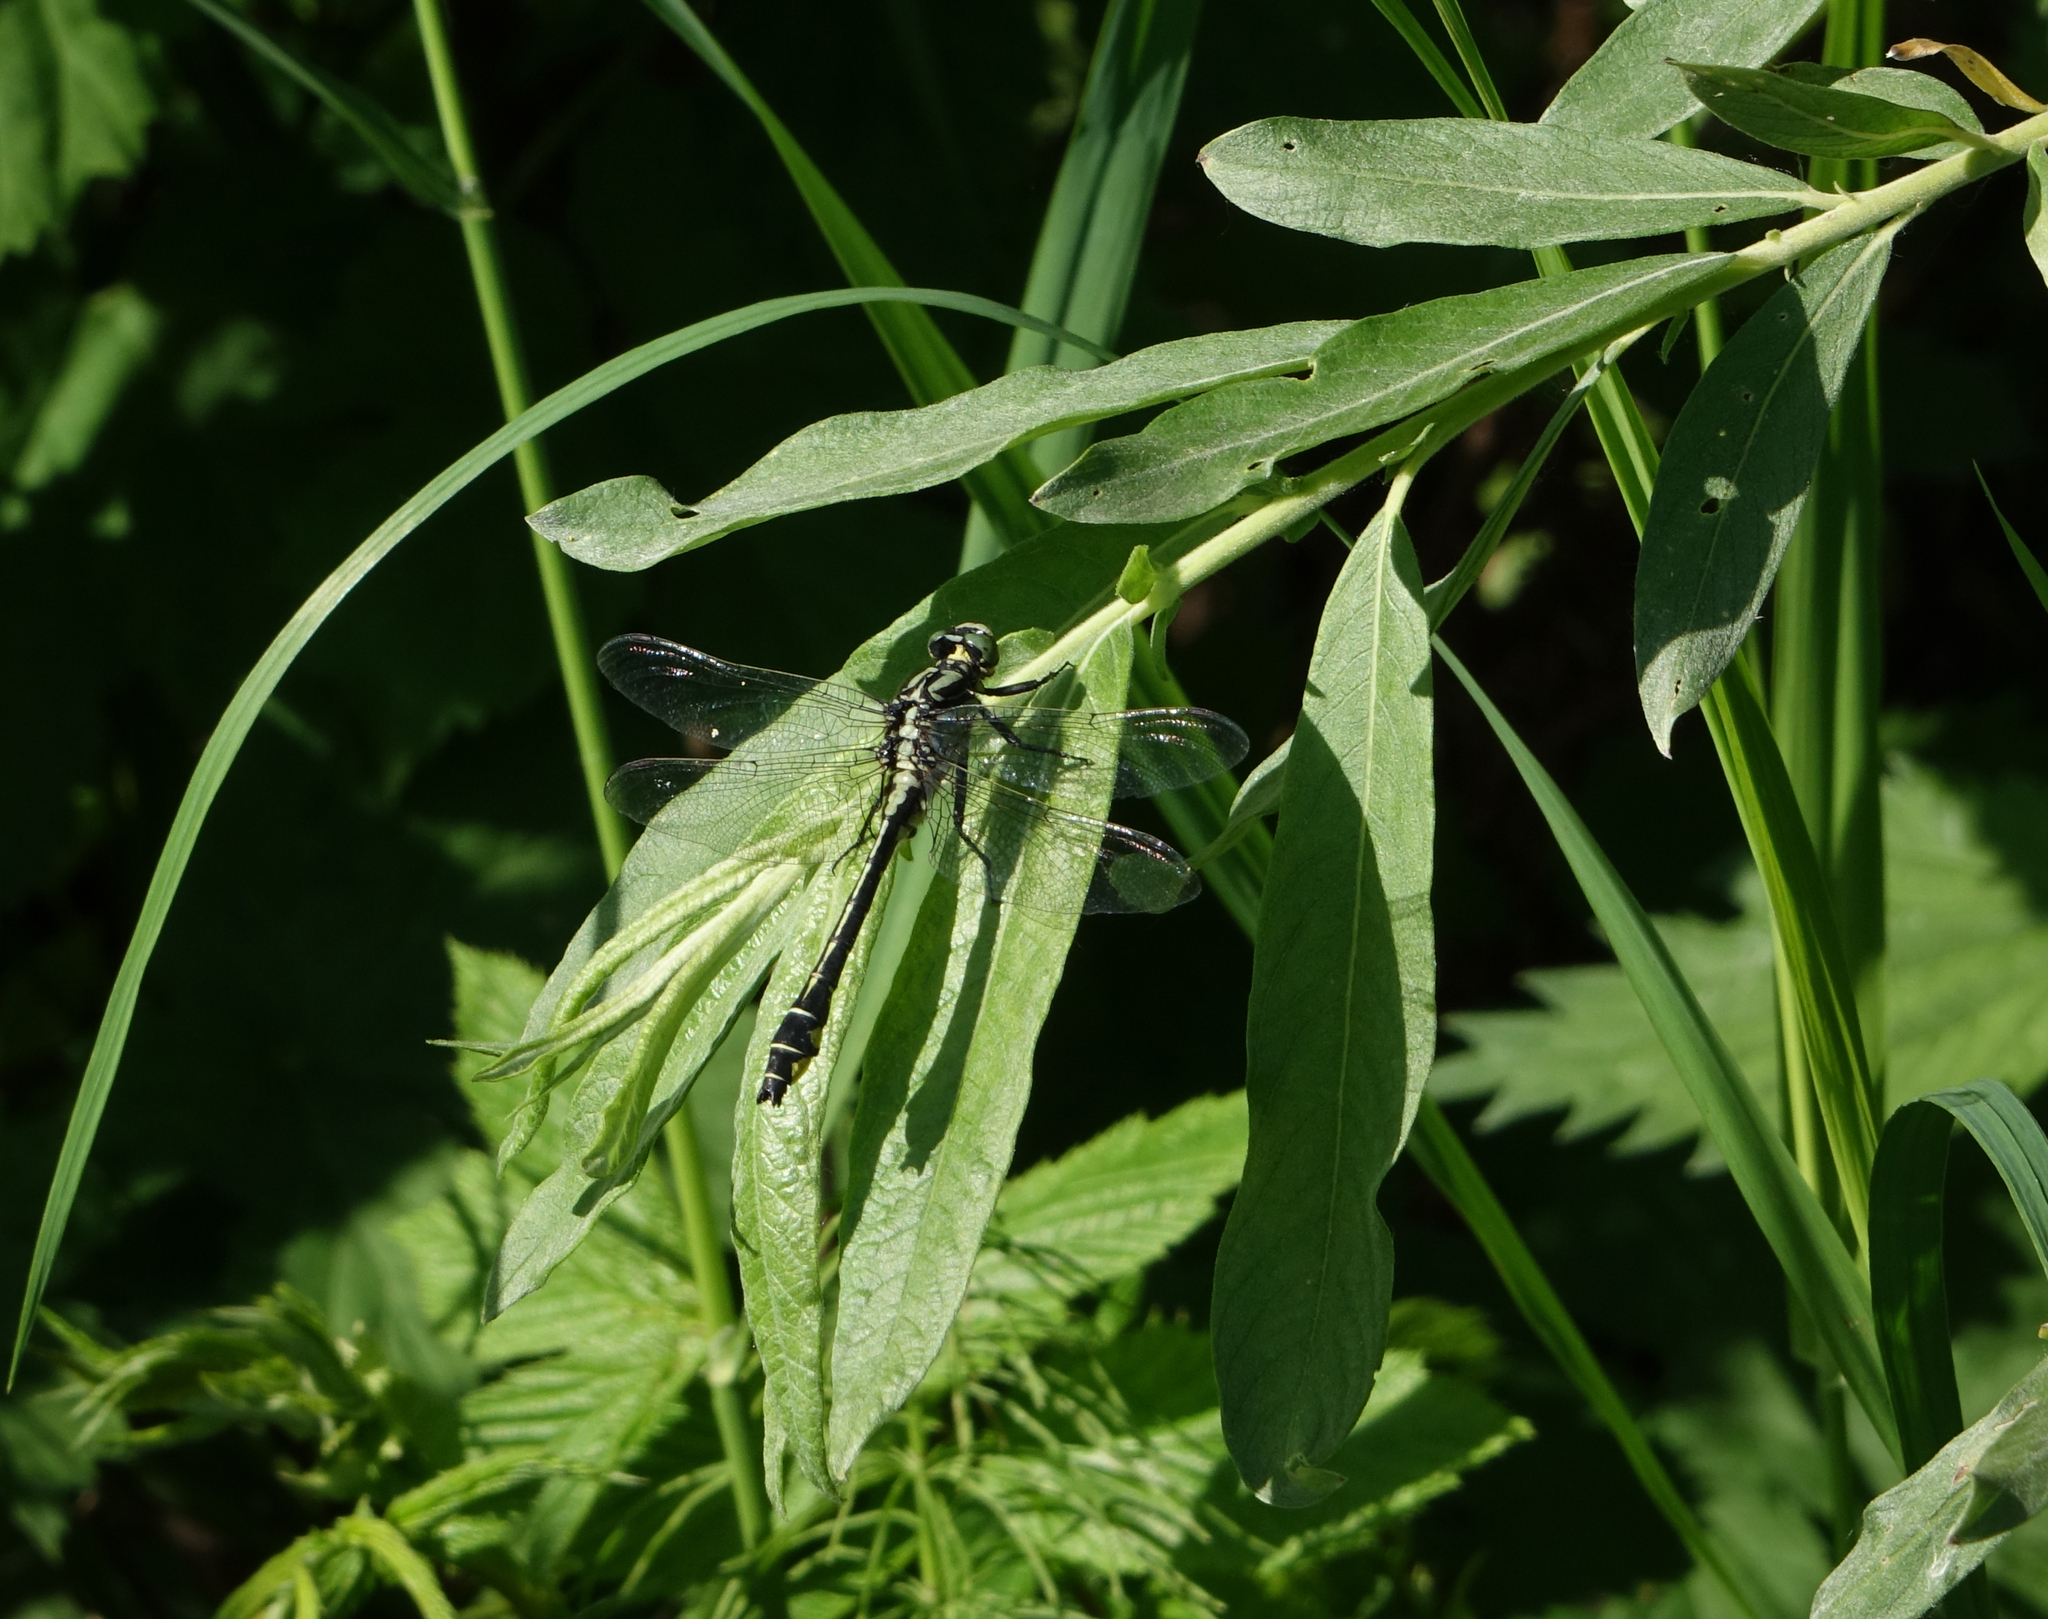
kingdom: Animalia
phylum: Arthropoda
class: Insecta
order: Odonata
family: Gomphidae
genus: Gomphus
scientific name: Gomphus vulgatissimus
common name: Club-tailed dragonfly
